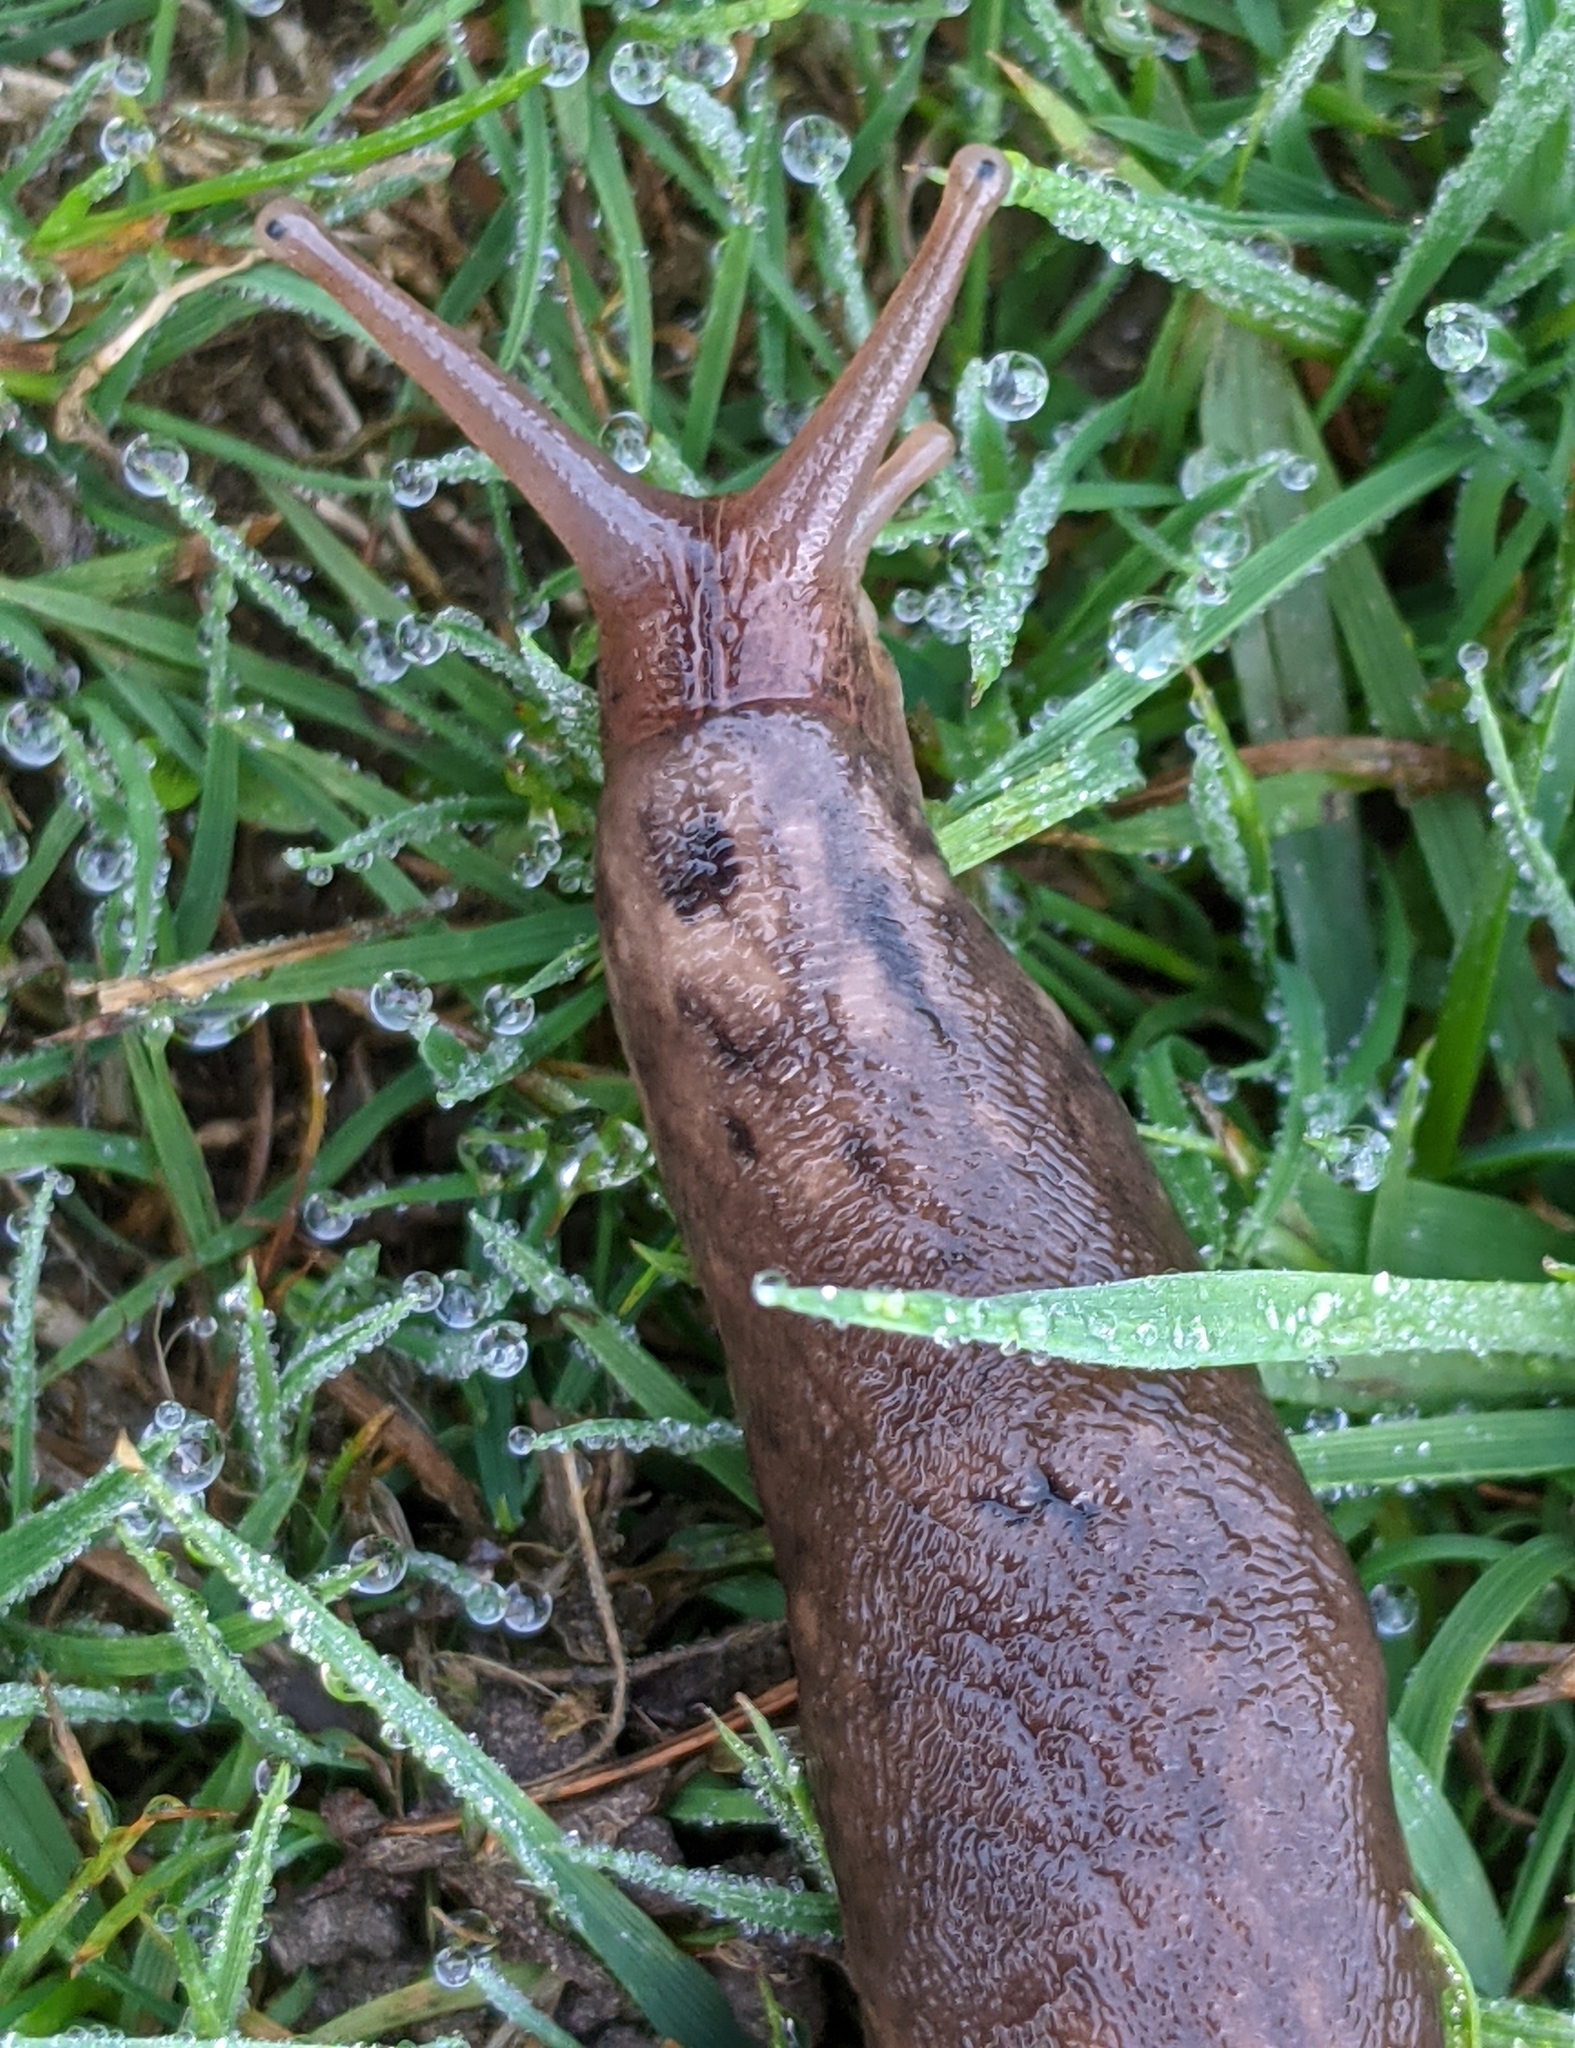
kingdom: Animalia
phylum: Mollusca
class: Gastropoda
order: Stylommatophora
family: Limacidae
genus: Limax
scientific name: Limax maximus
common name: Great grey slug
